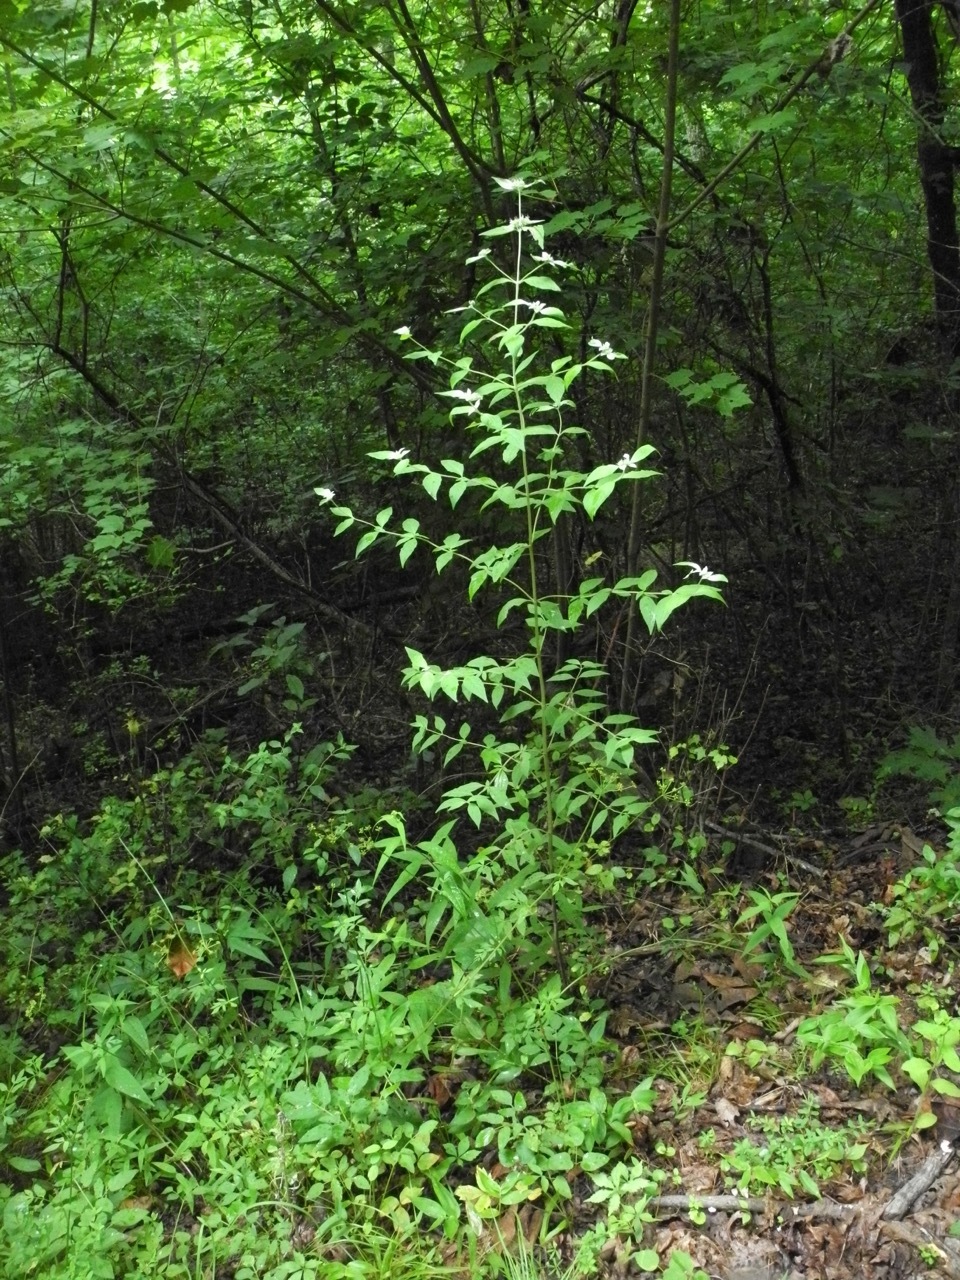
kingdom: Plantae
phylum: Tracheophyta
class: Magnoliopsida
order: Lamiales
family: Lamiaceae
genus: Pycnanthemum
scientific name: Pycnanthemum incanum
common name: Hoary mountain-mint
